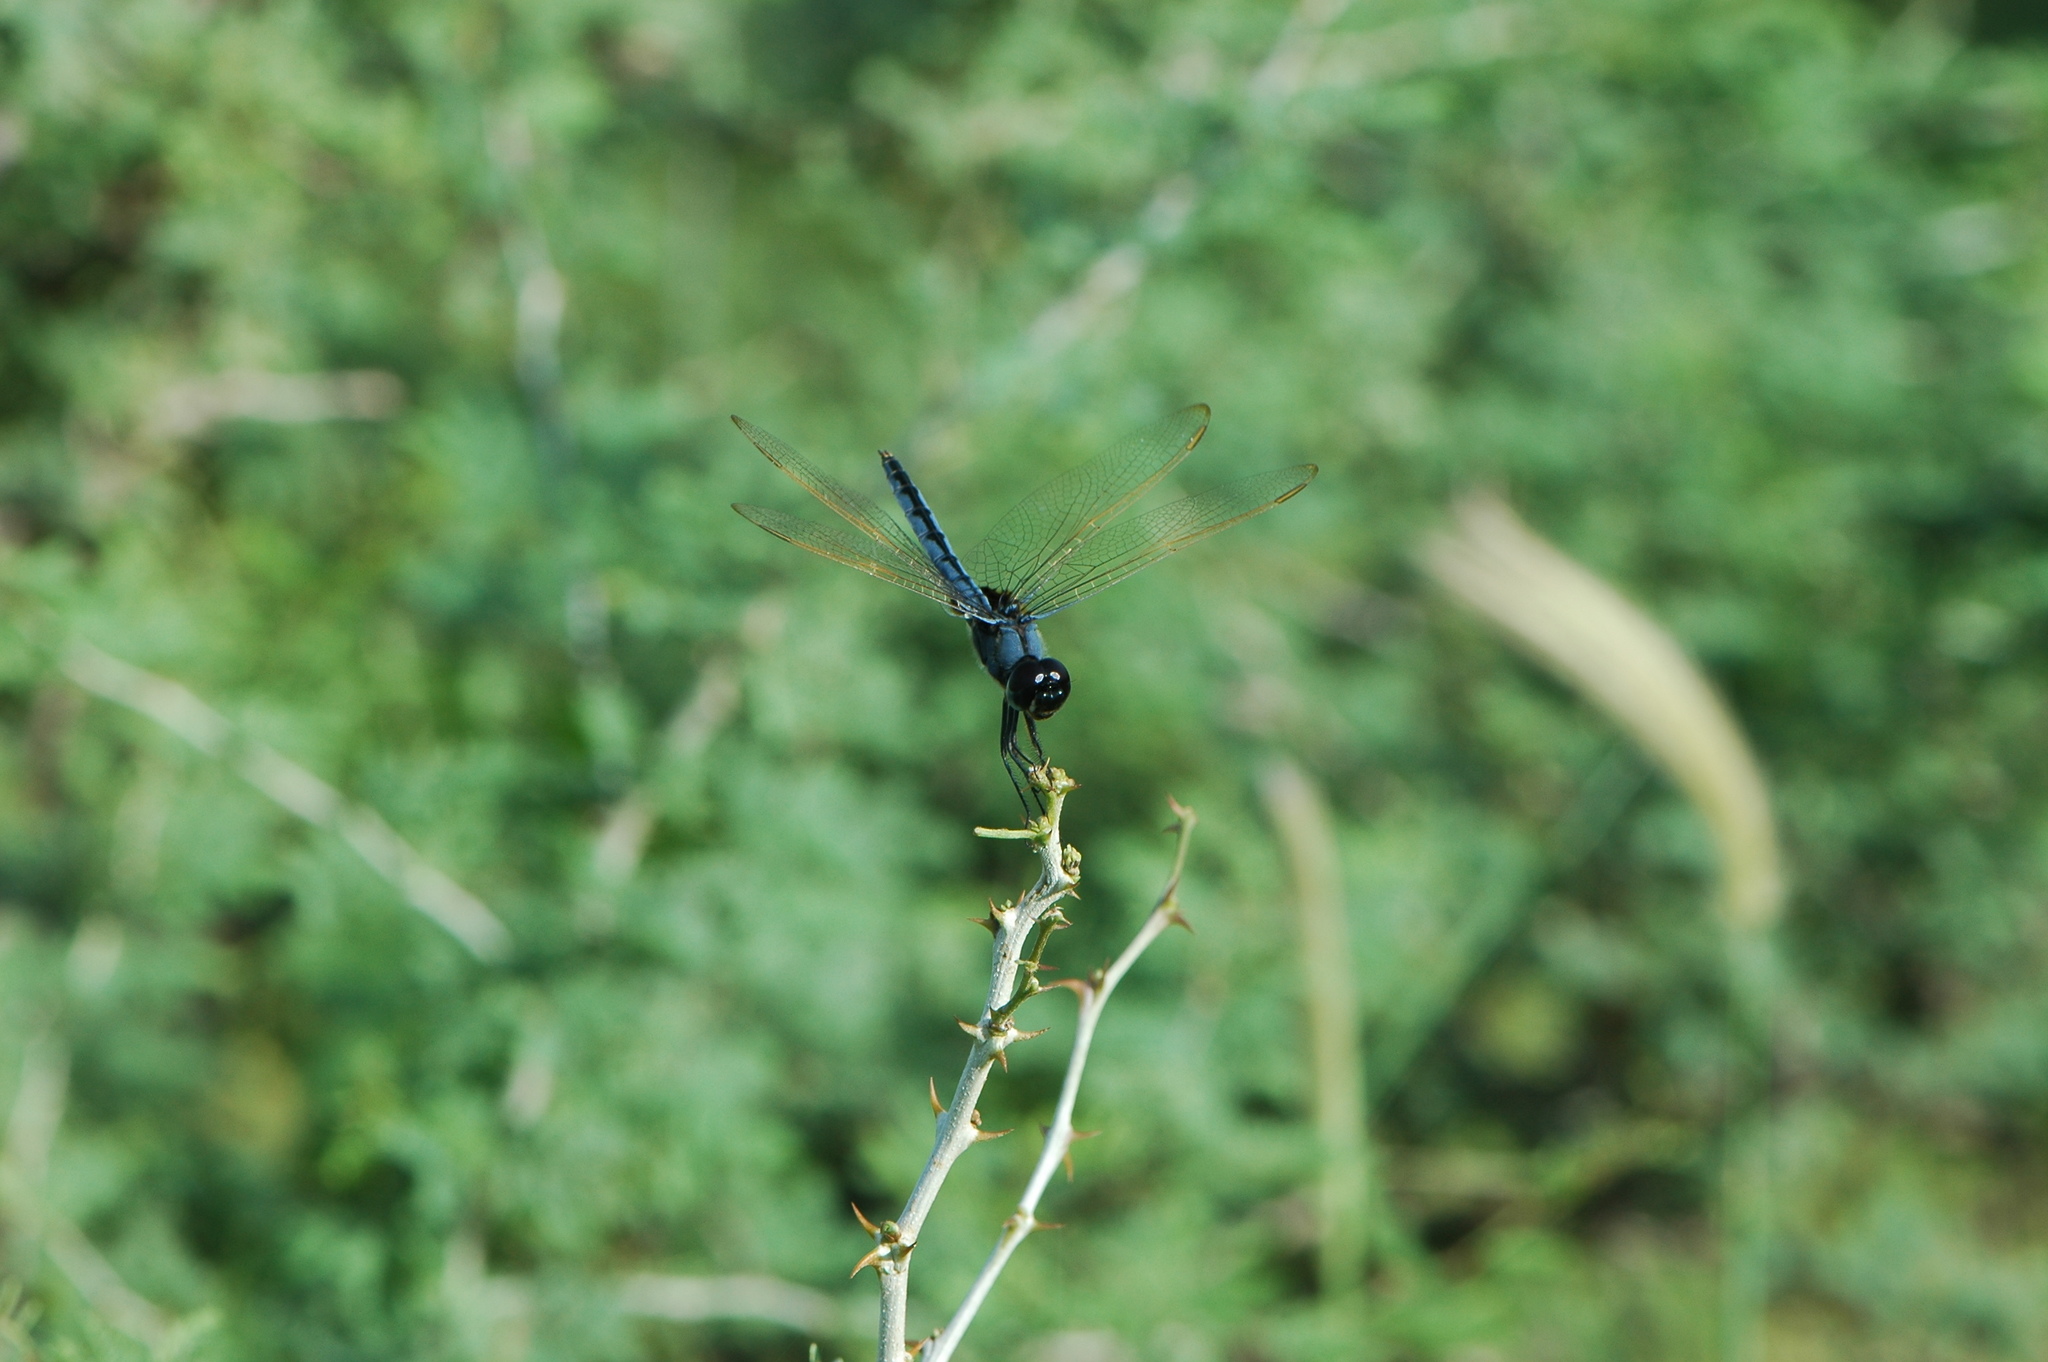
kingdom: Animalia
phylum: Arthropoda
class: Insecta
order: Odonata
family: Libellulidae
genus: Urothemis
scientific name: Urothemis edwardsii
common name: Blue basker
